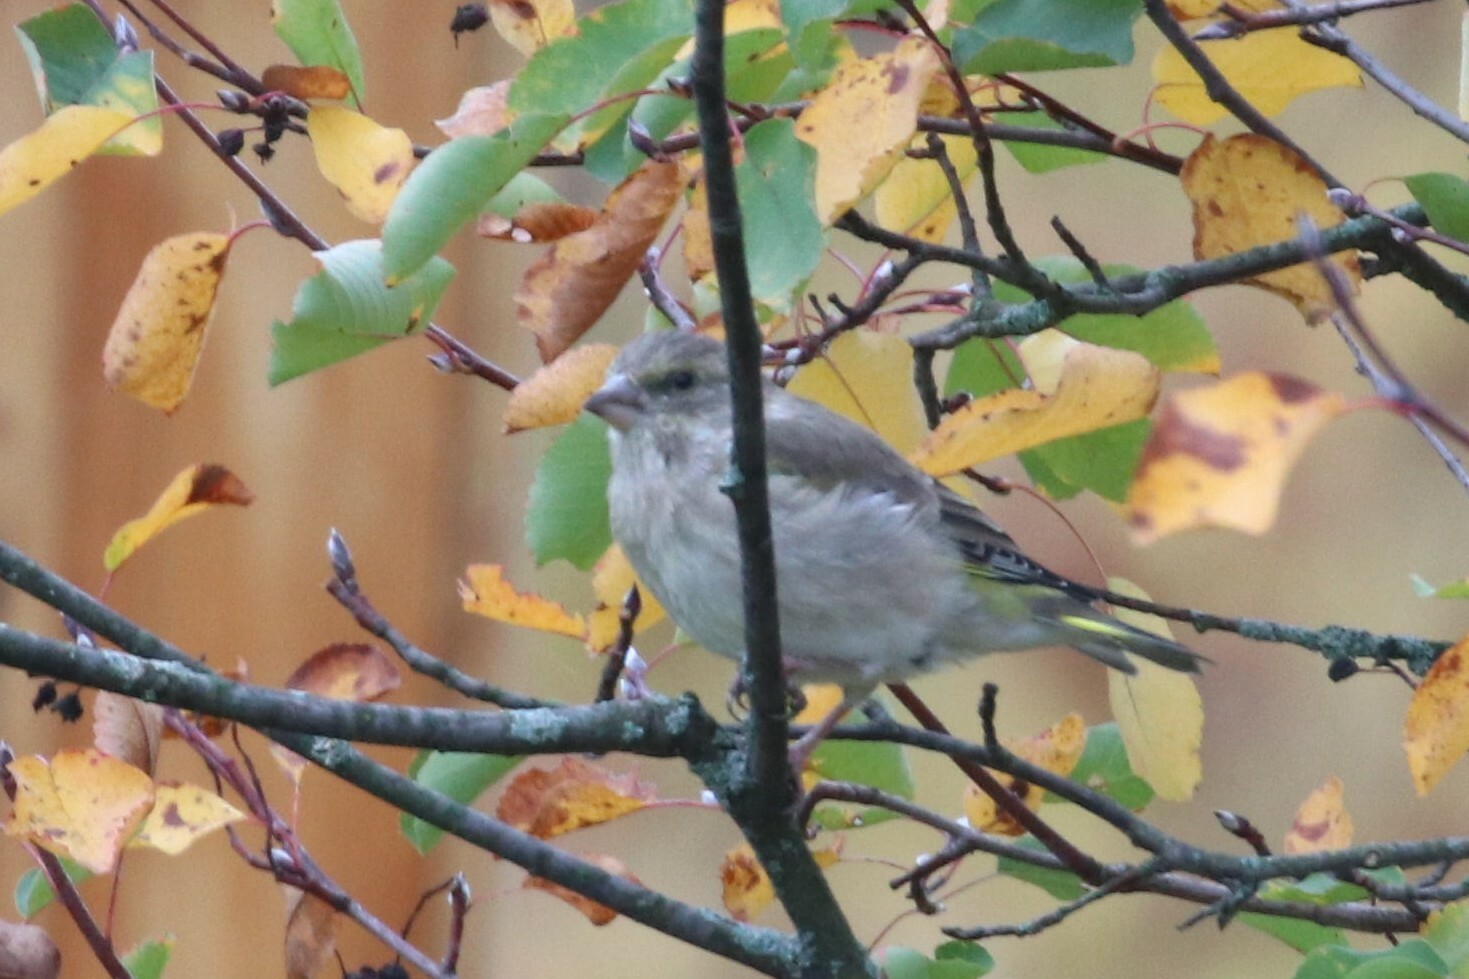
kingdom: Plantae
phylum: Tracheophyta
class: Liliopsida
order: Poales
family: Poaceae
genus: Chloris
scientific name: Chloris chloris
